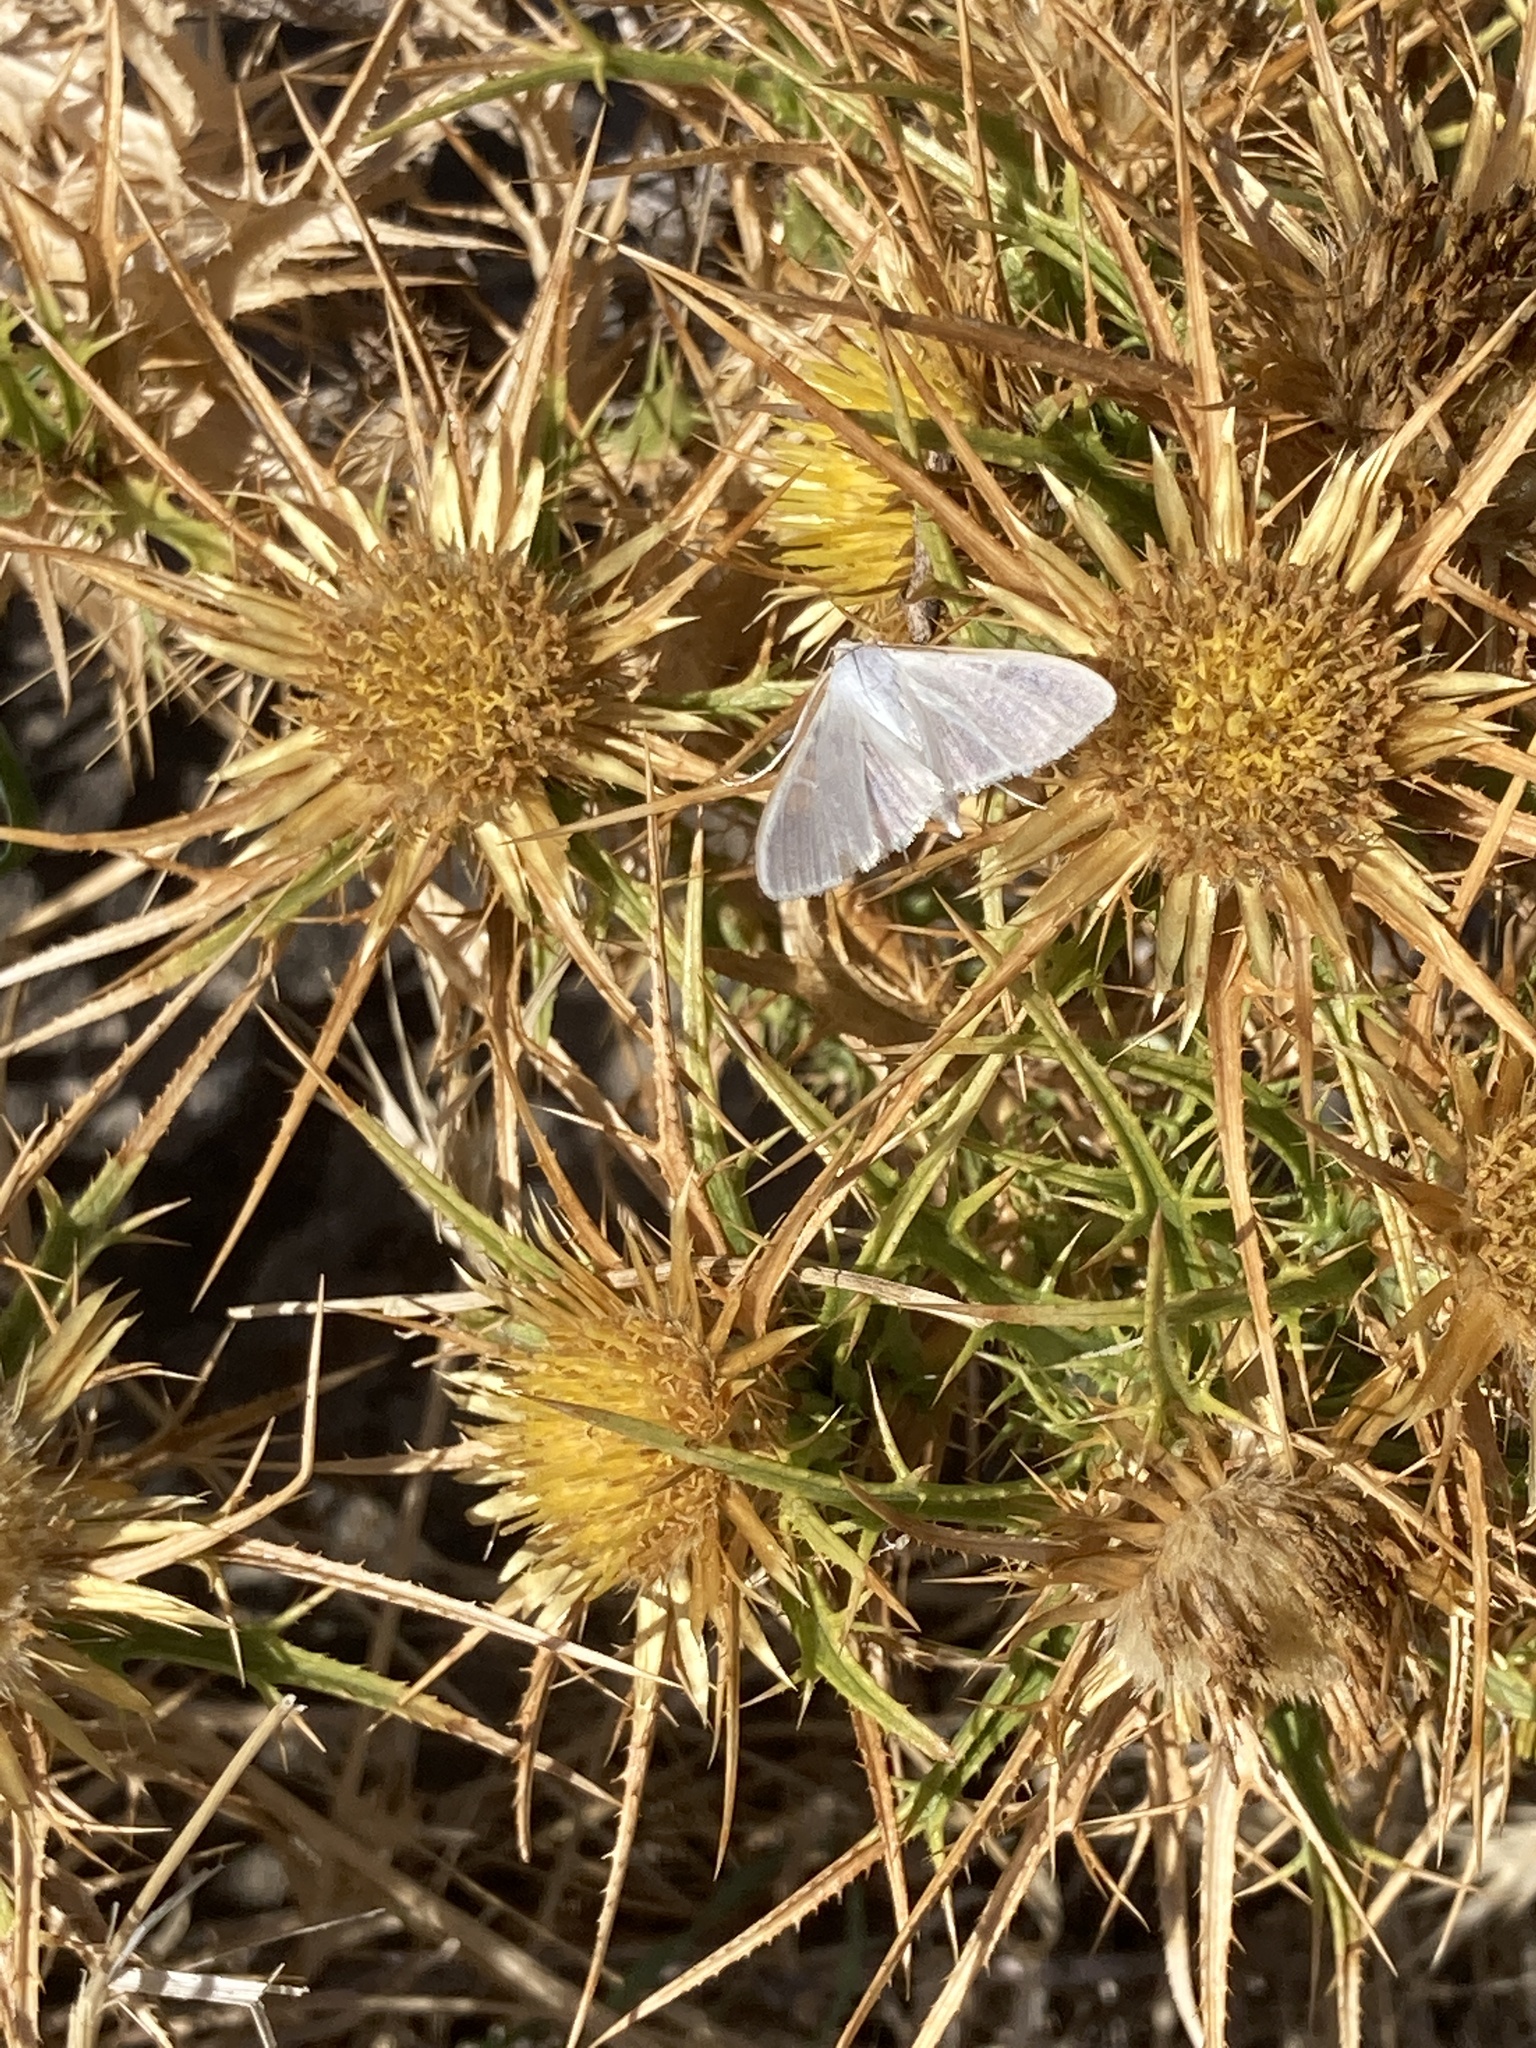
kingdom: Animalia
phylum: Arthropoda
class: Insecta
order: Lepidoptera
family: Crambidae
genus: Palpita
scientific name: Palpita vitrealis
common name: Olive-tree pearl
